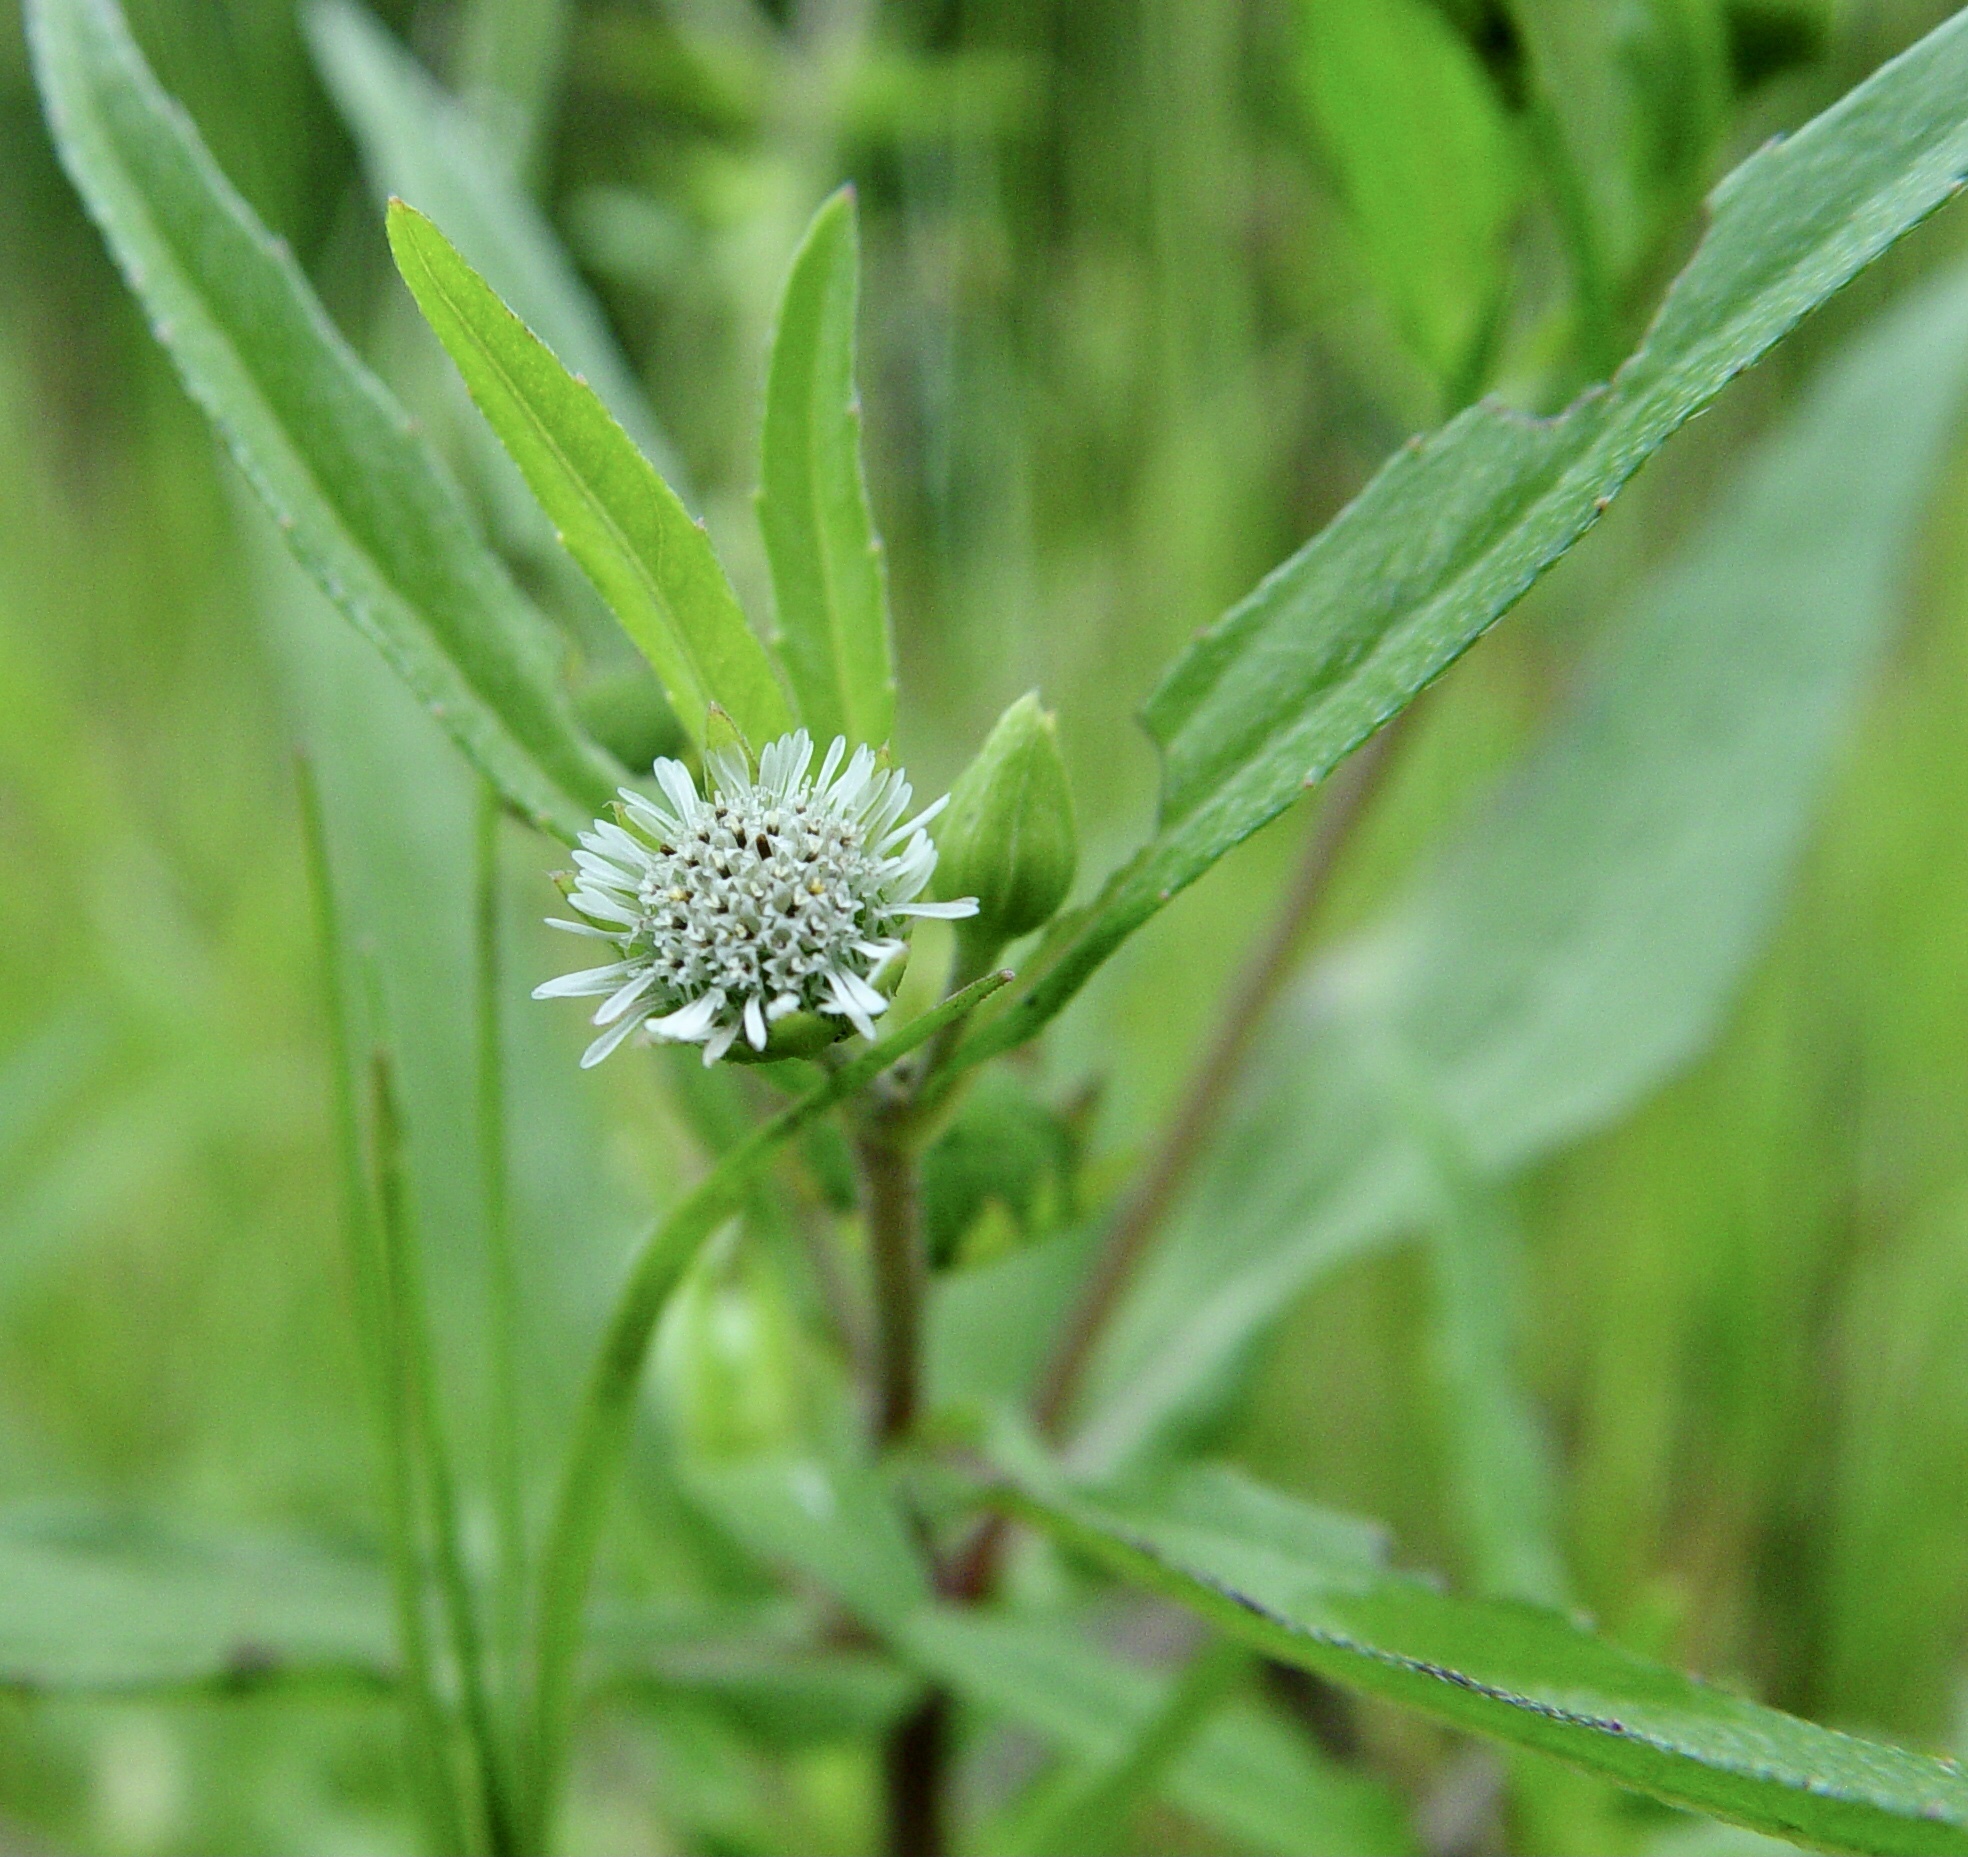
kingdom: Plantae
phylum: Tracheophyta
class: Magnoliopsida
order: Asterales
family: Asteraceae
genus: Eclipta
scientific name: Eclipta prostrata
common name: False daisy
